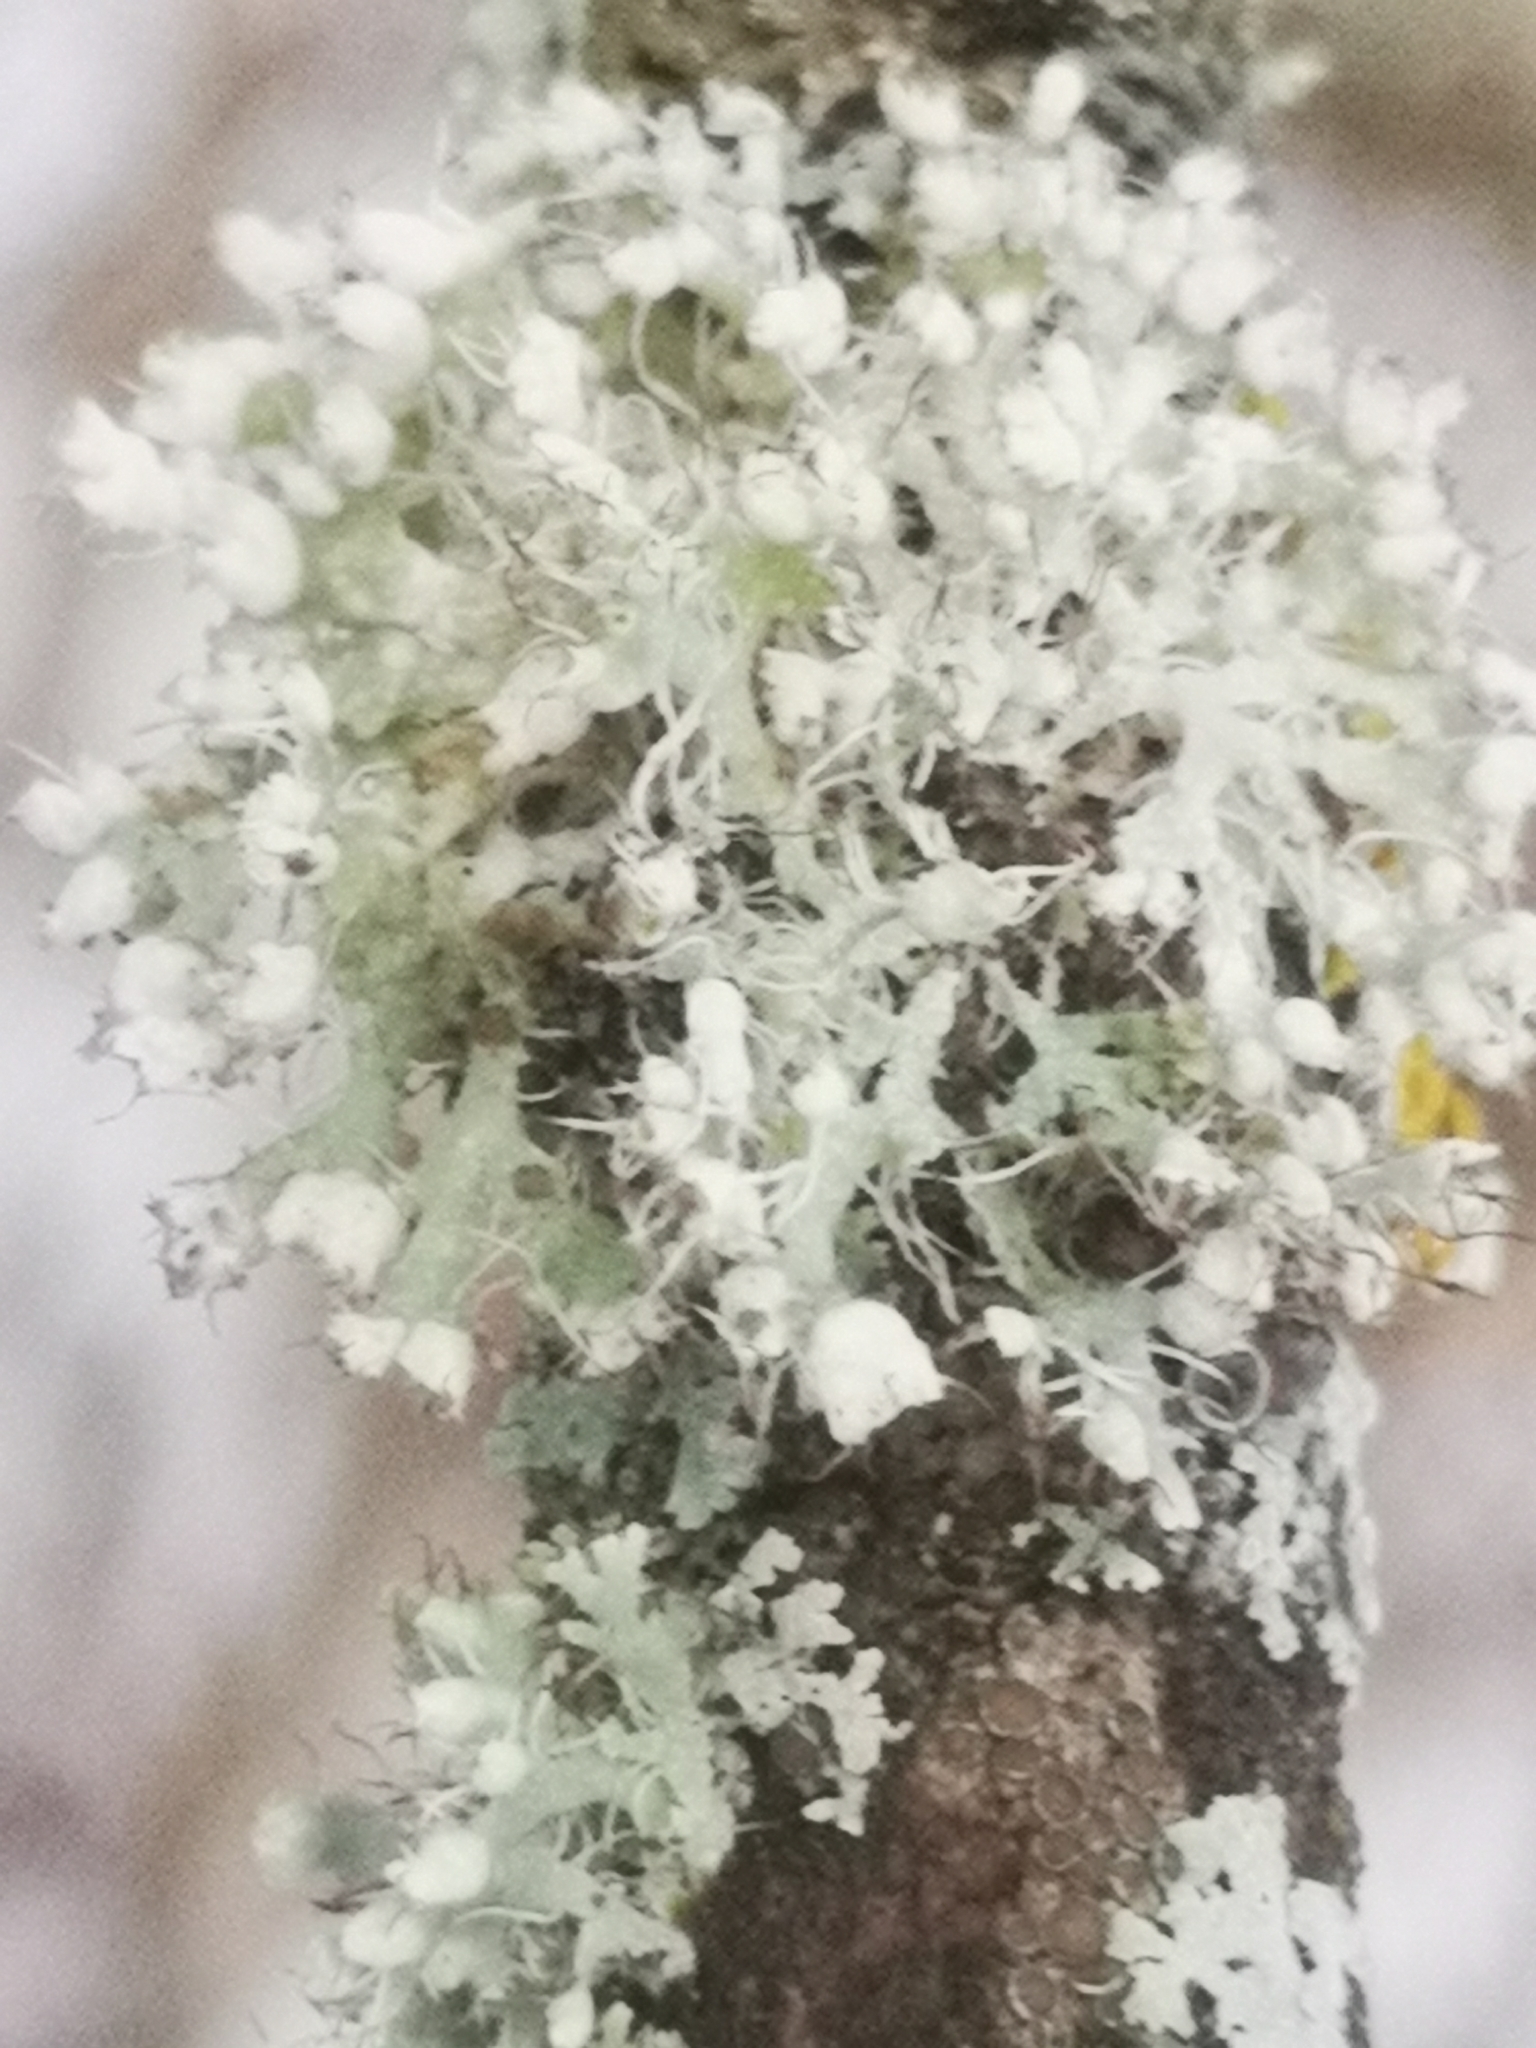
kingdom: Fungi
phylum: Ascomycota
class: Lecanoromycetes
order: Caliciales
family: Physciaceae
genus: Physcia
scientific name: Physcia adscendens
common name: Hooded rosette lichen
